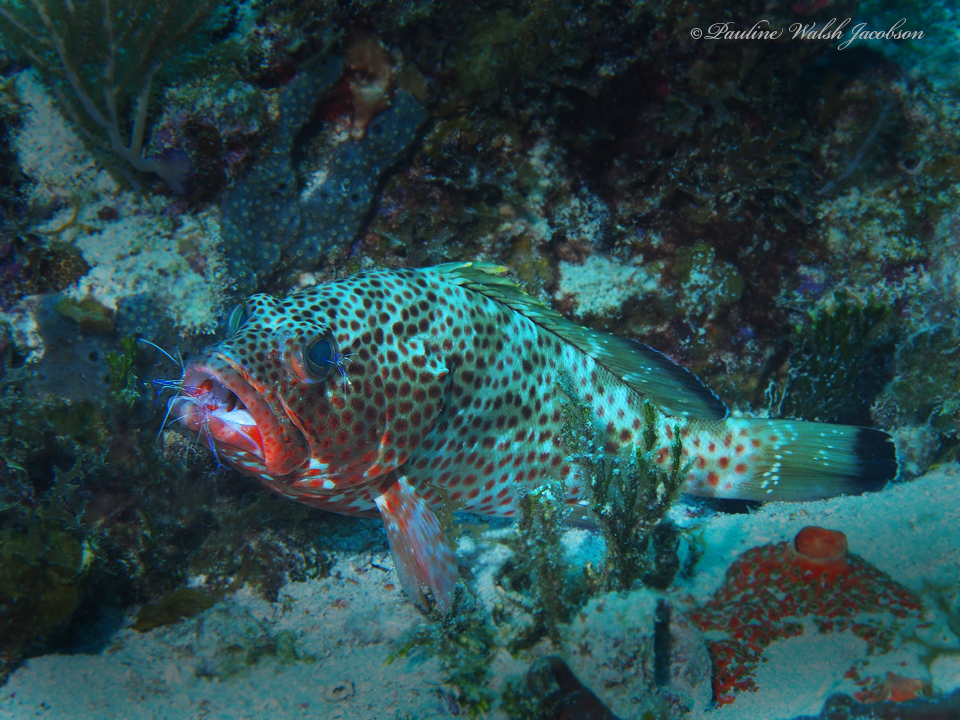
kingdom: Animalia
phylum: Chordata
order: Perciformes
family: Serranidae
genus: Epinephelus
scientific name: Epinephelus guttatus
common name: Red hind
